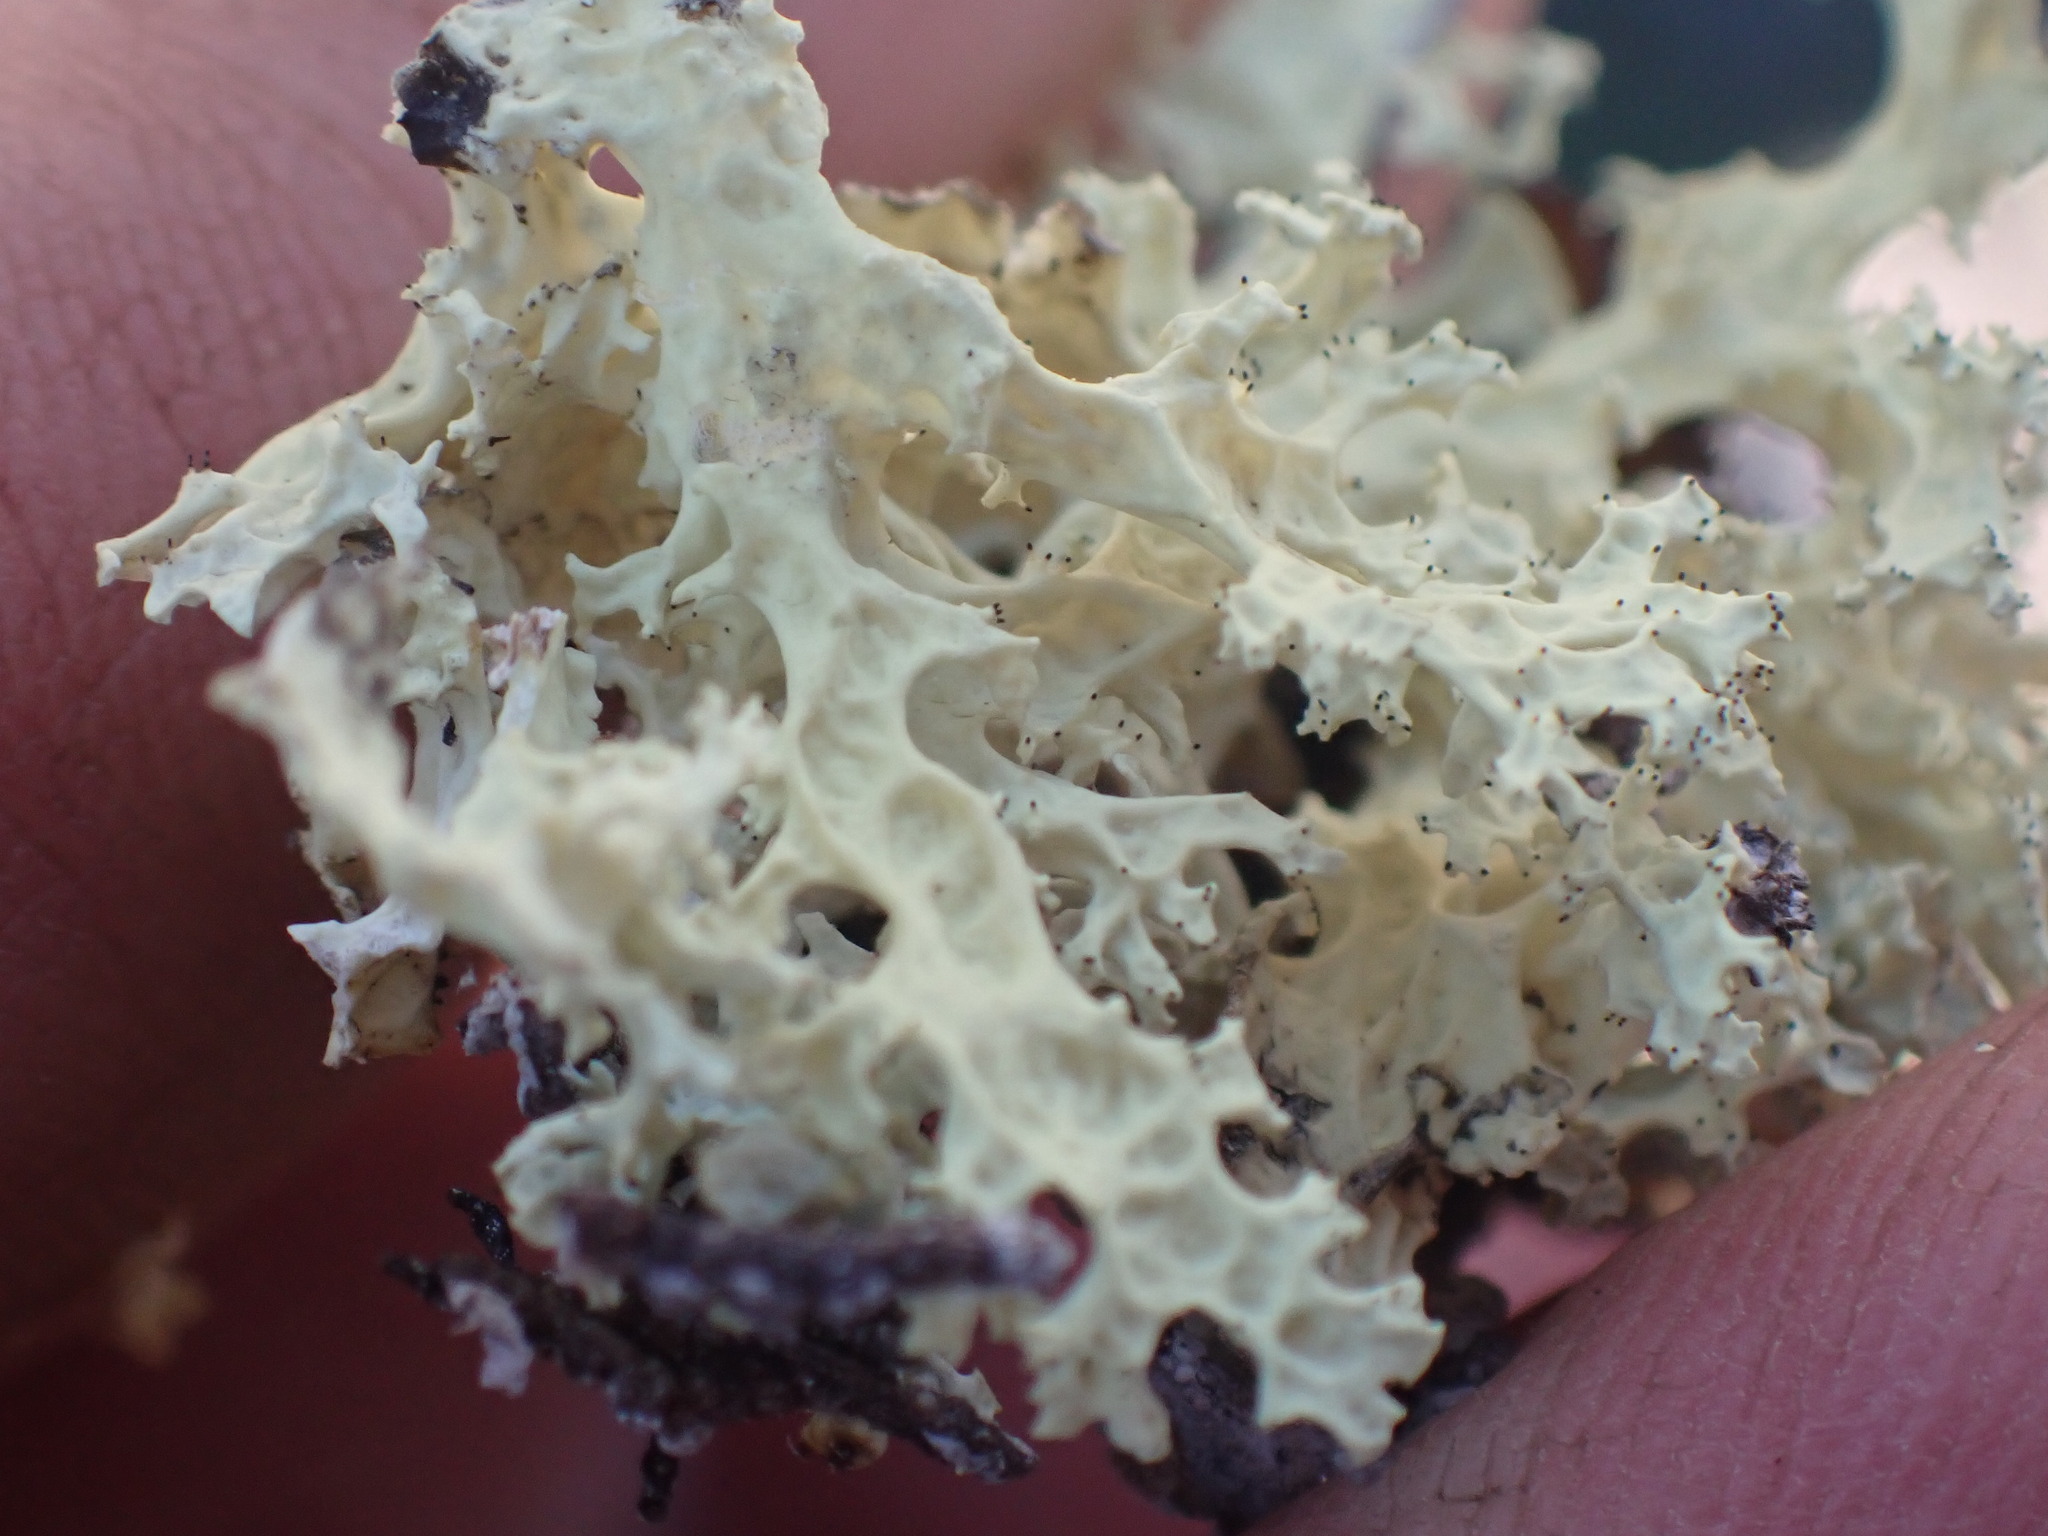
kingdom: Fungi
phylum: Ascomycota
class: Lecanoromycetes
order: Lecanorales
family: Parmeliaceae
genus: Nephromopsis
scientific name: Nephromopsis nivalis
